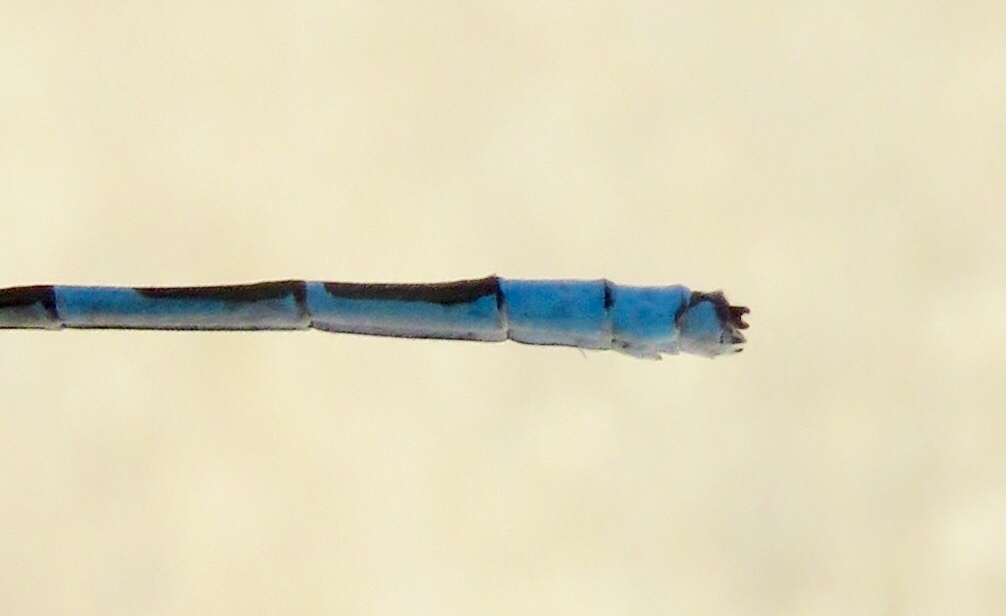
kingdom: Animalia
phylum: Arthropoda
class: Insecta
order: Odonata
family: Coenagrionidae
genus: Enallagma
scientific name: Enallagma ebrium
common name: Marsh bluet
